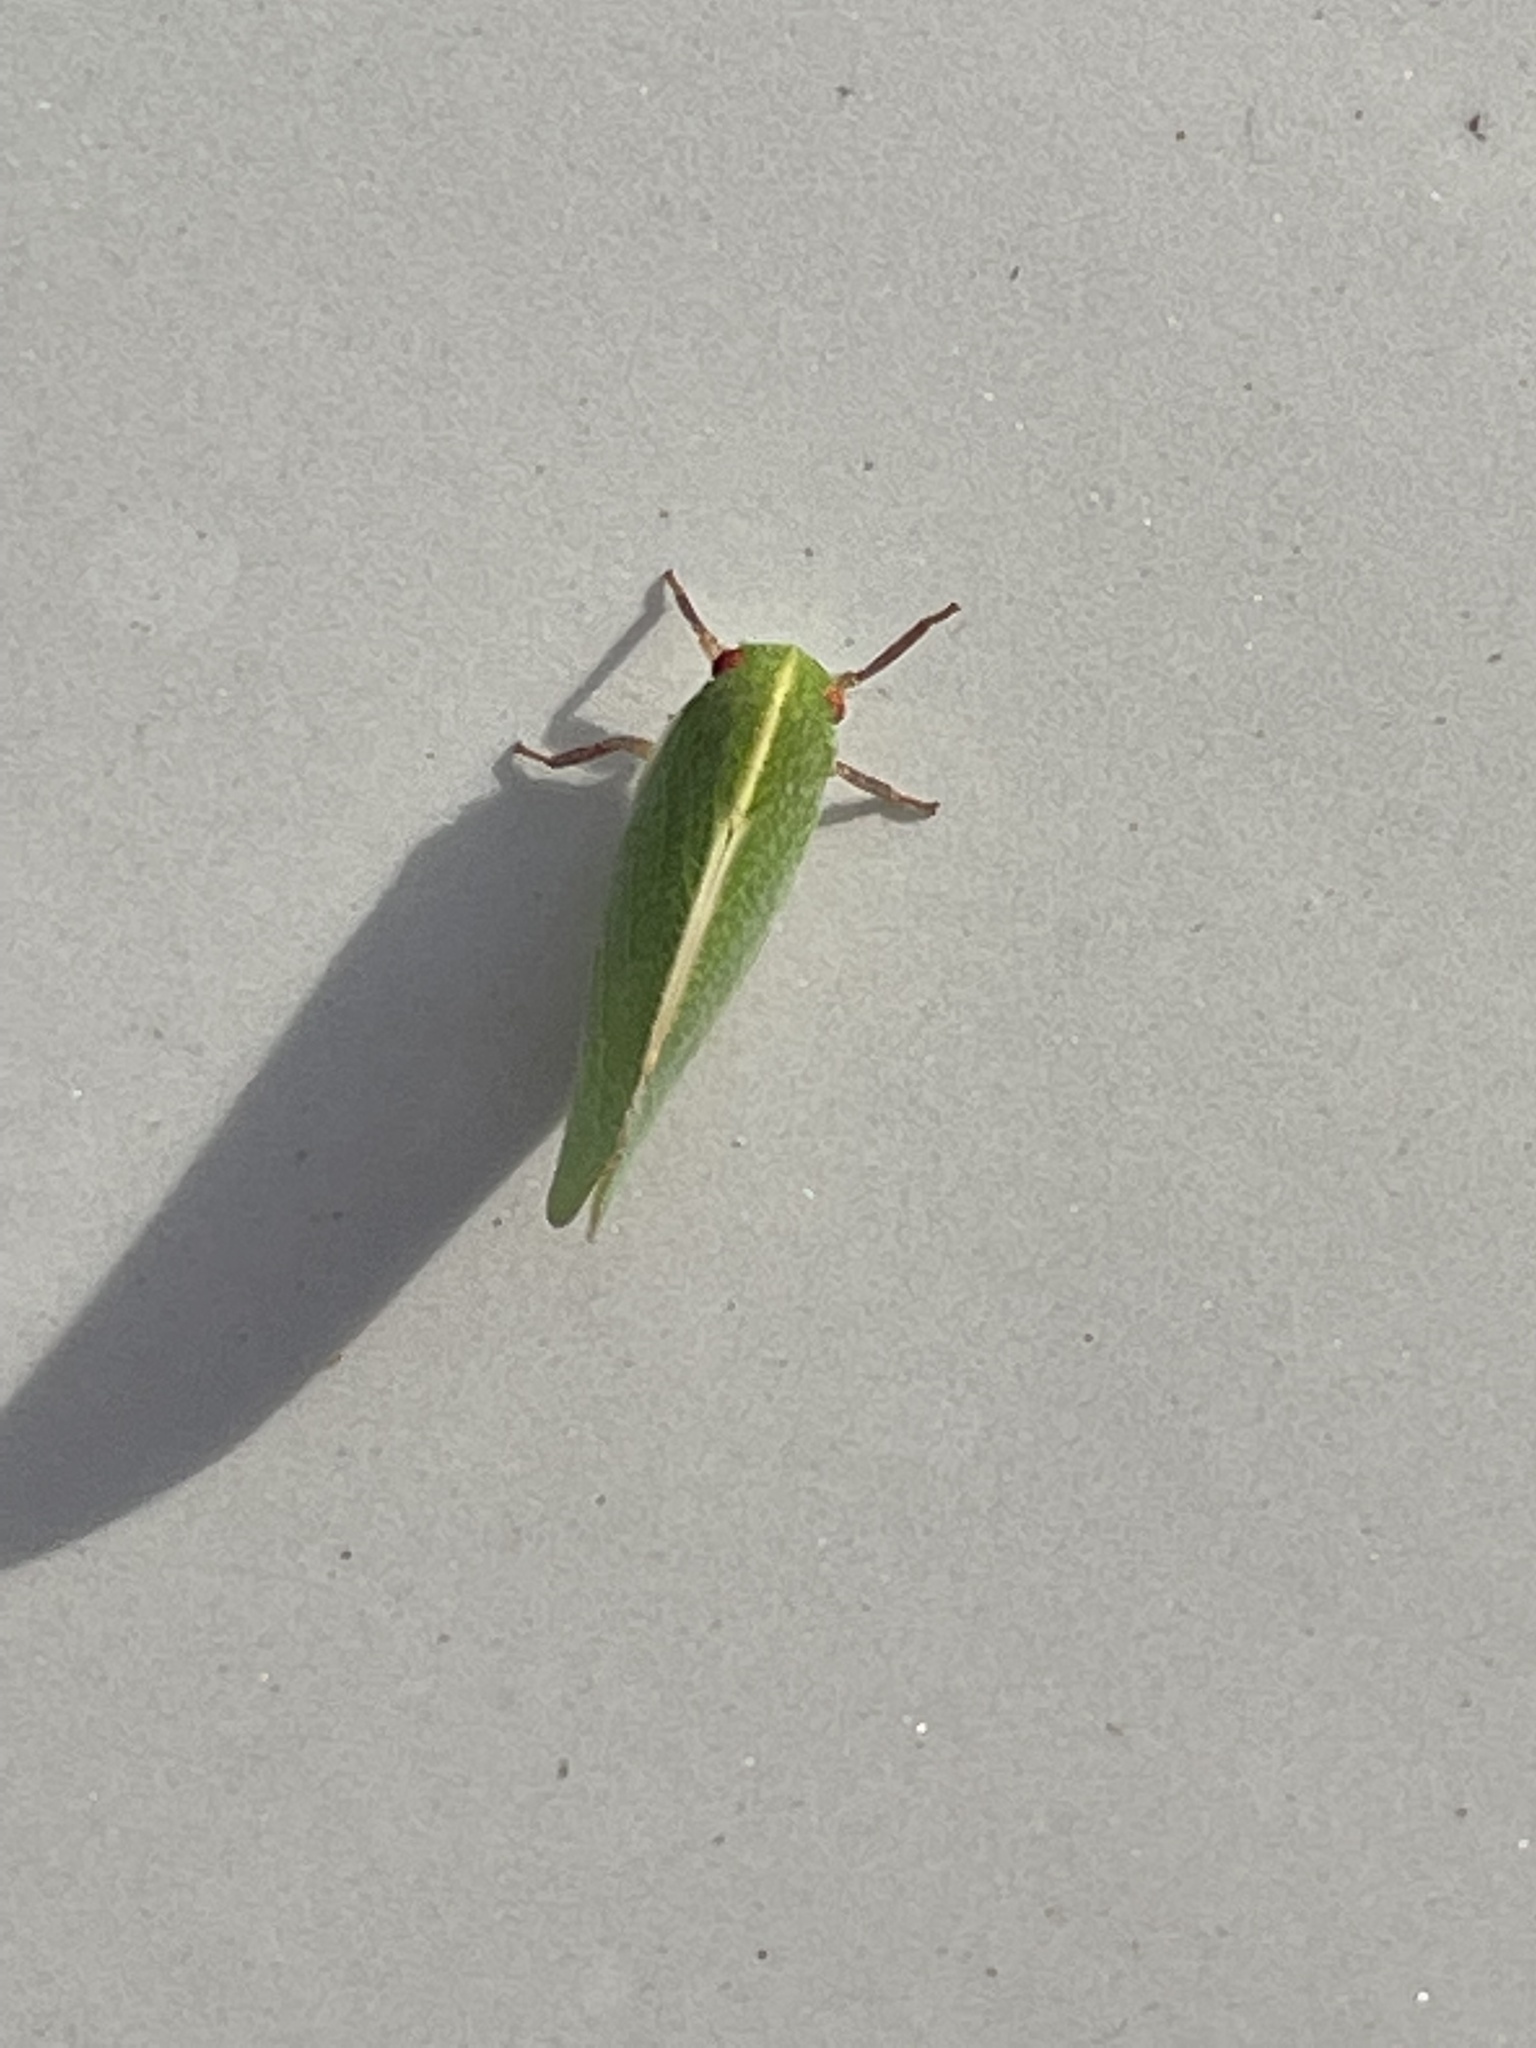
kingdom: Animalia
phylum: Arthropoda
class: Insecta
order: Hemiptera
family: Acanaloniidae
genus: Acanalonia
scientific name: Acanalonia servillei
